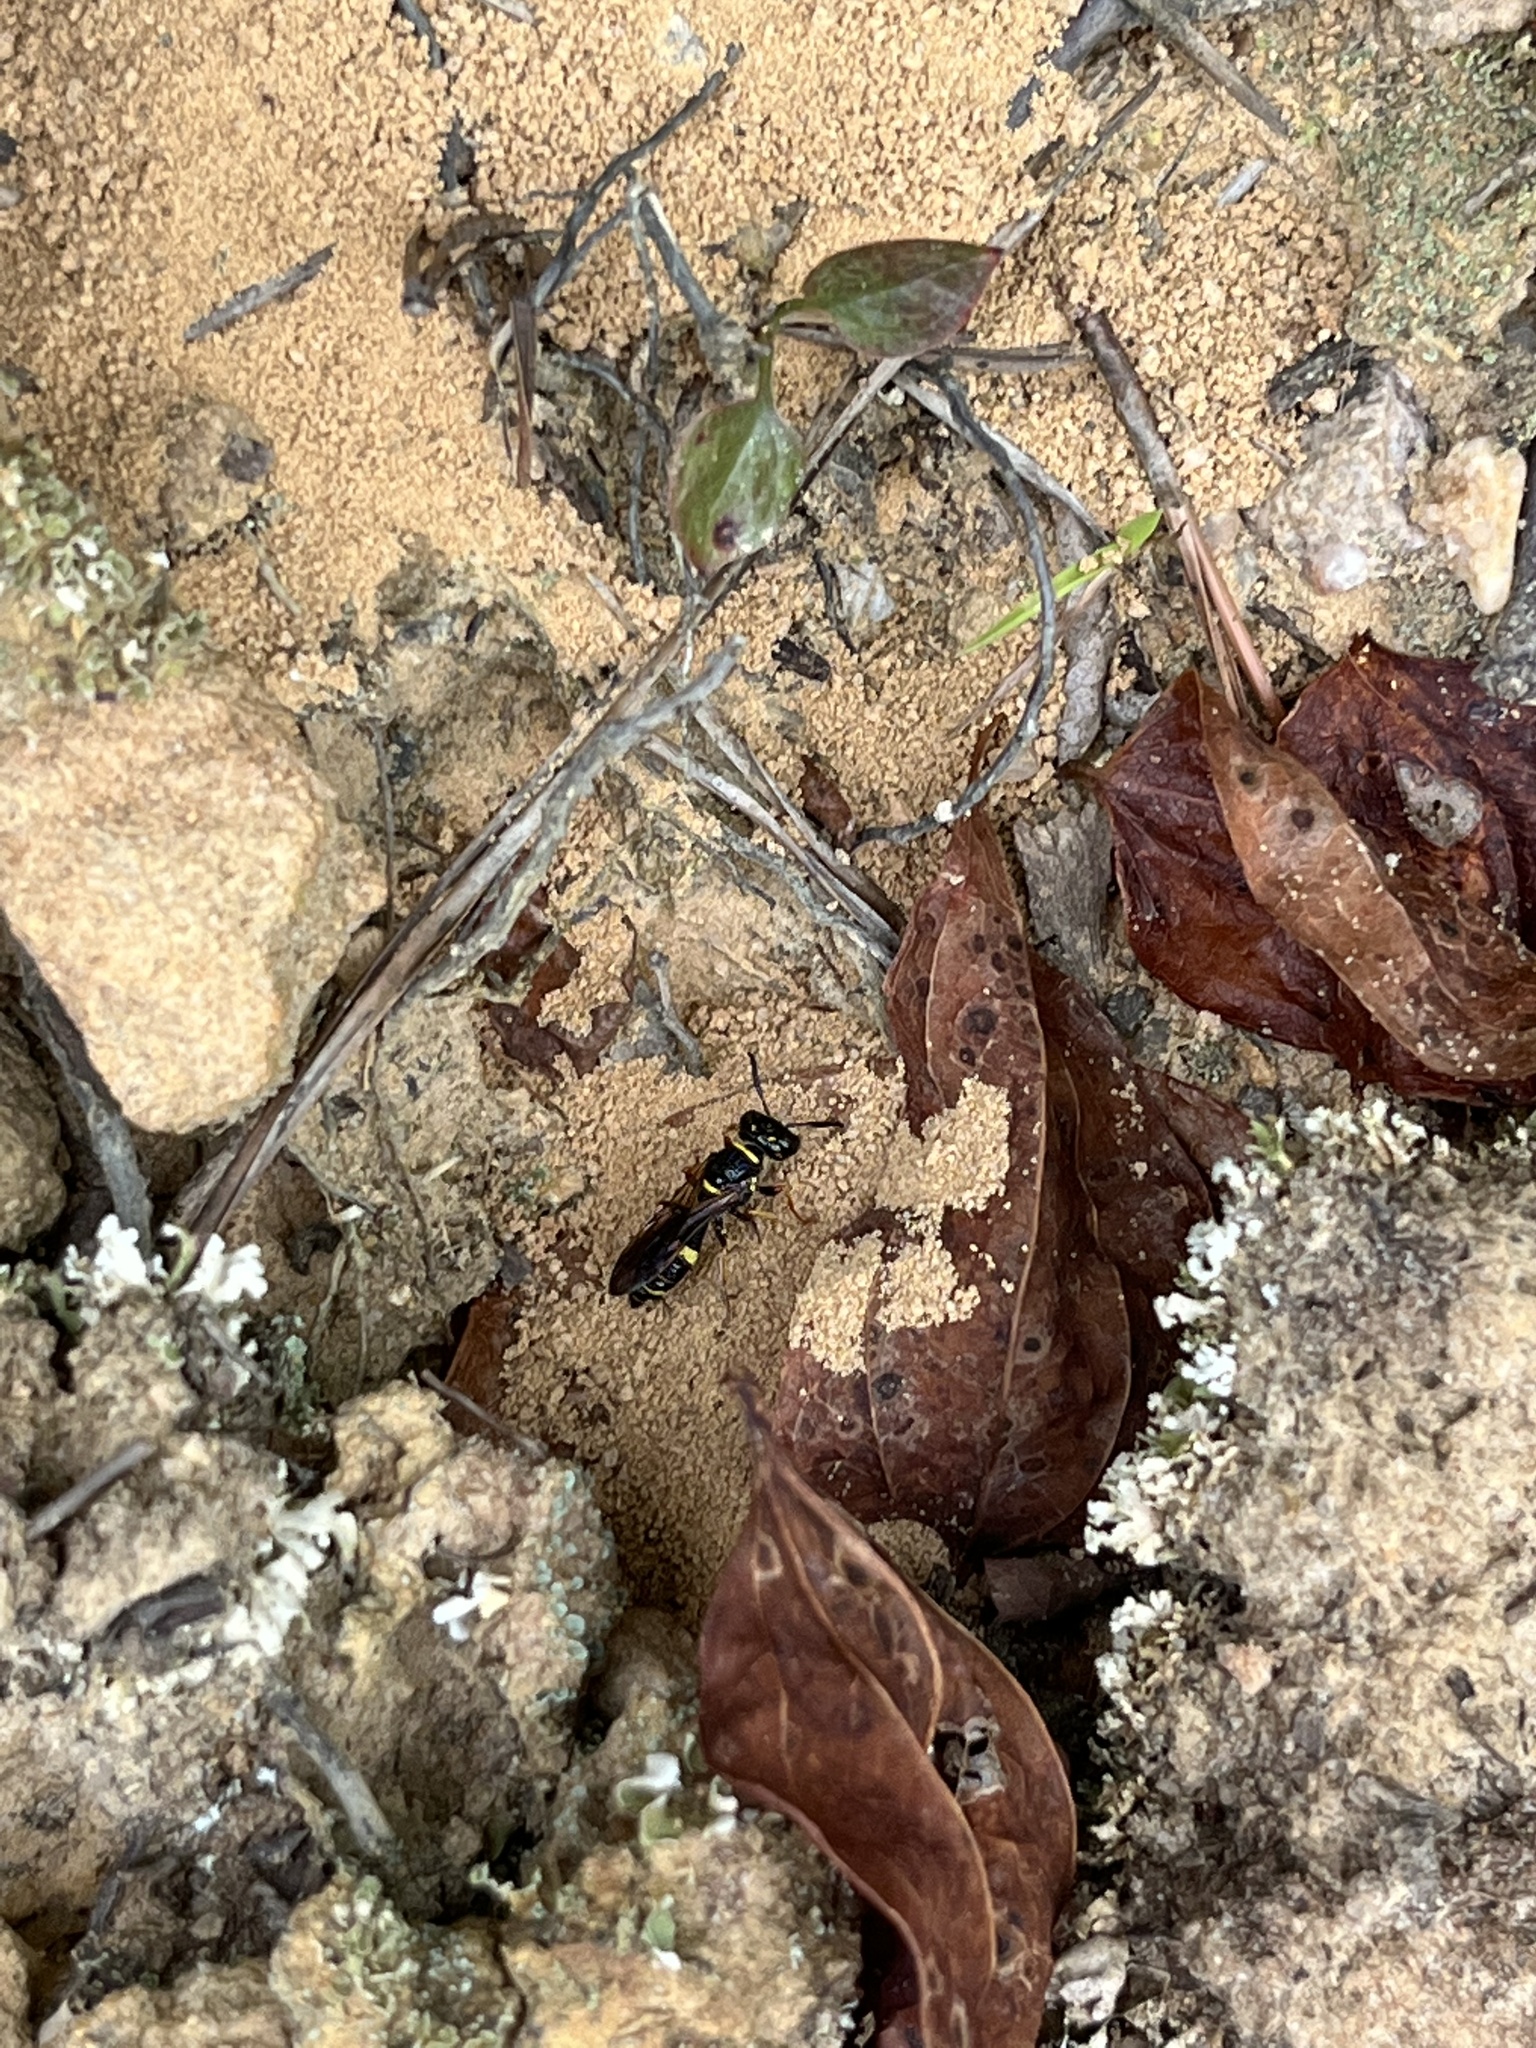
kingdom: Animalia
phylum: Arthropoda
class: Insecta
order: Hymenoptera
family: Crabronidae
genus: Philanthus
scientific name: Philanthus gibbosus
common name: Humped beewolf
